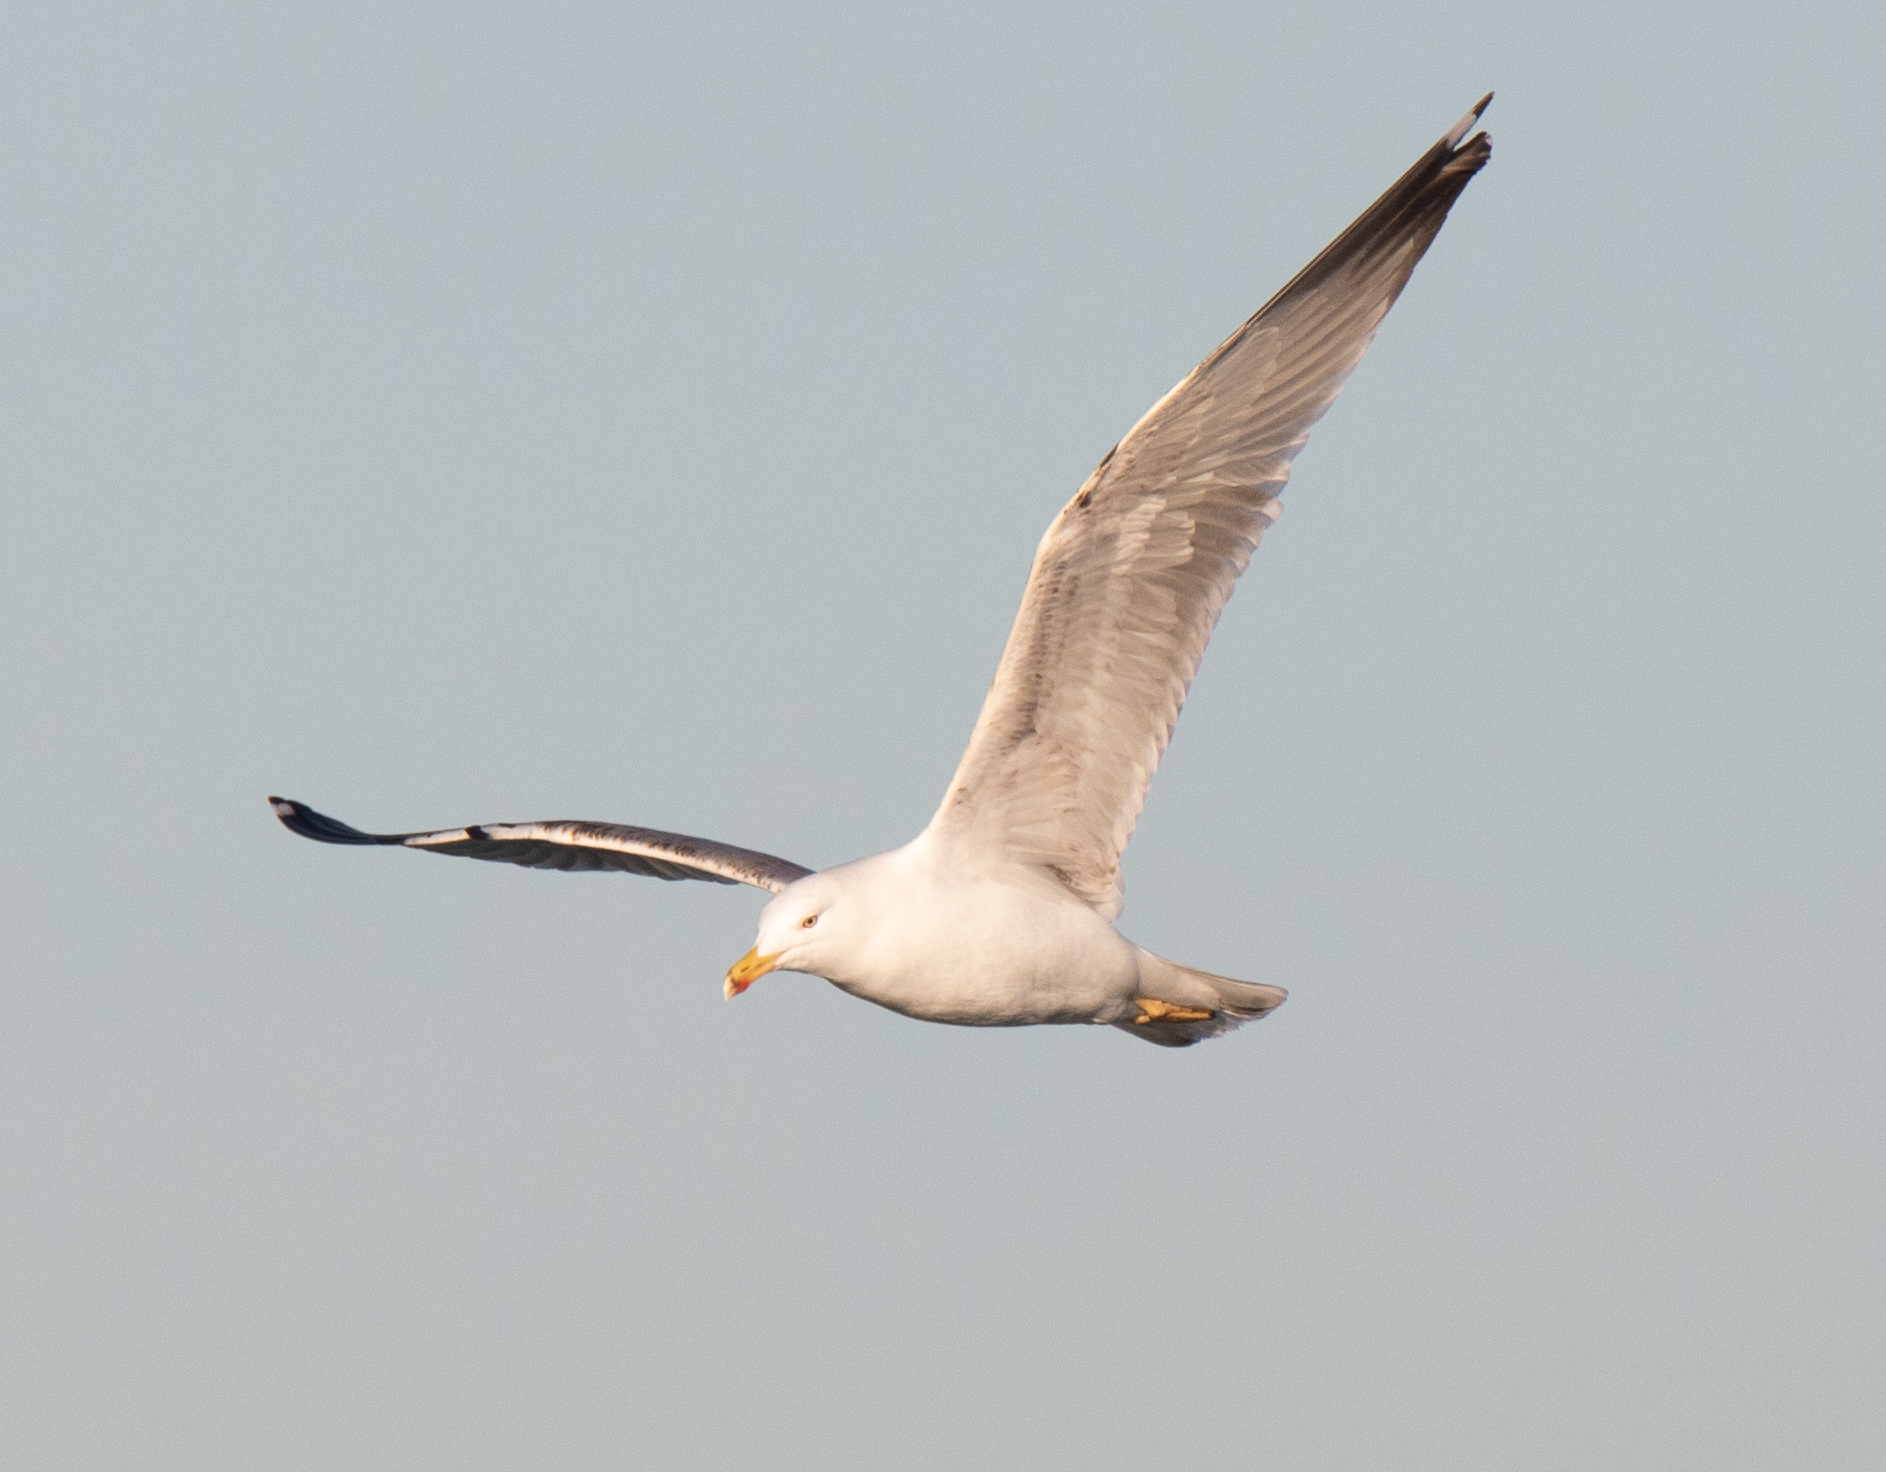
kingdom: Animalia
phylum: Chordata
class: Aves
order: Charadriiformes
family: Laridae
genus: Larus
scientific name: Larus michahellis
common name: Yellow-legged gull
